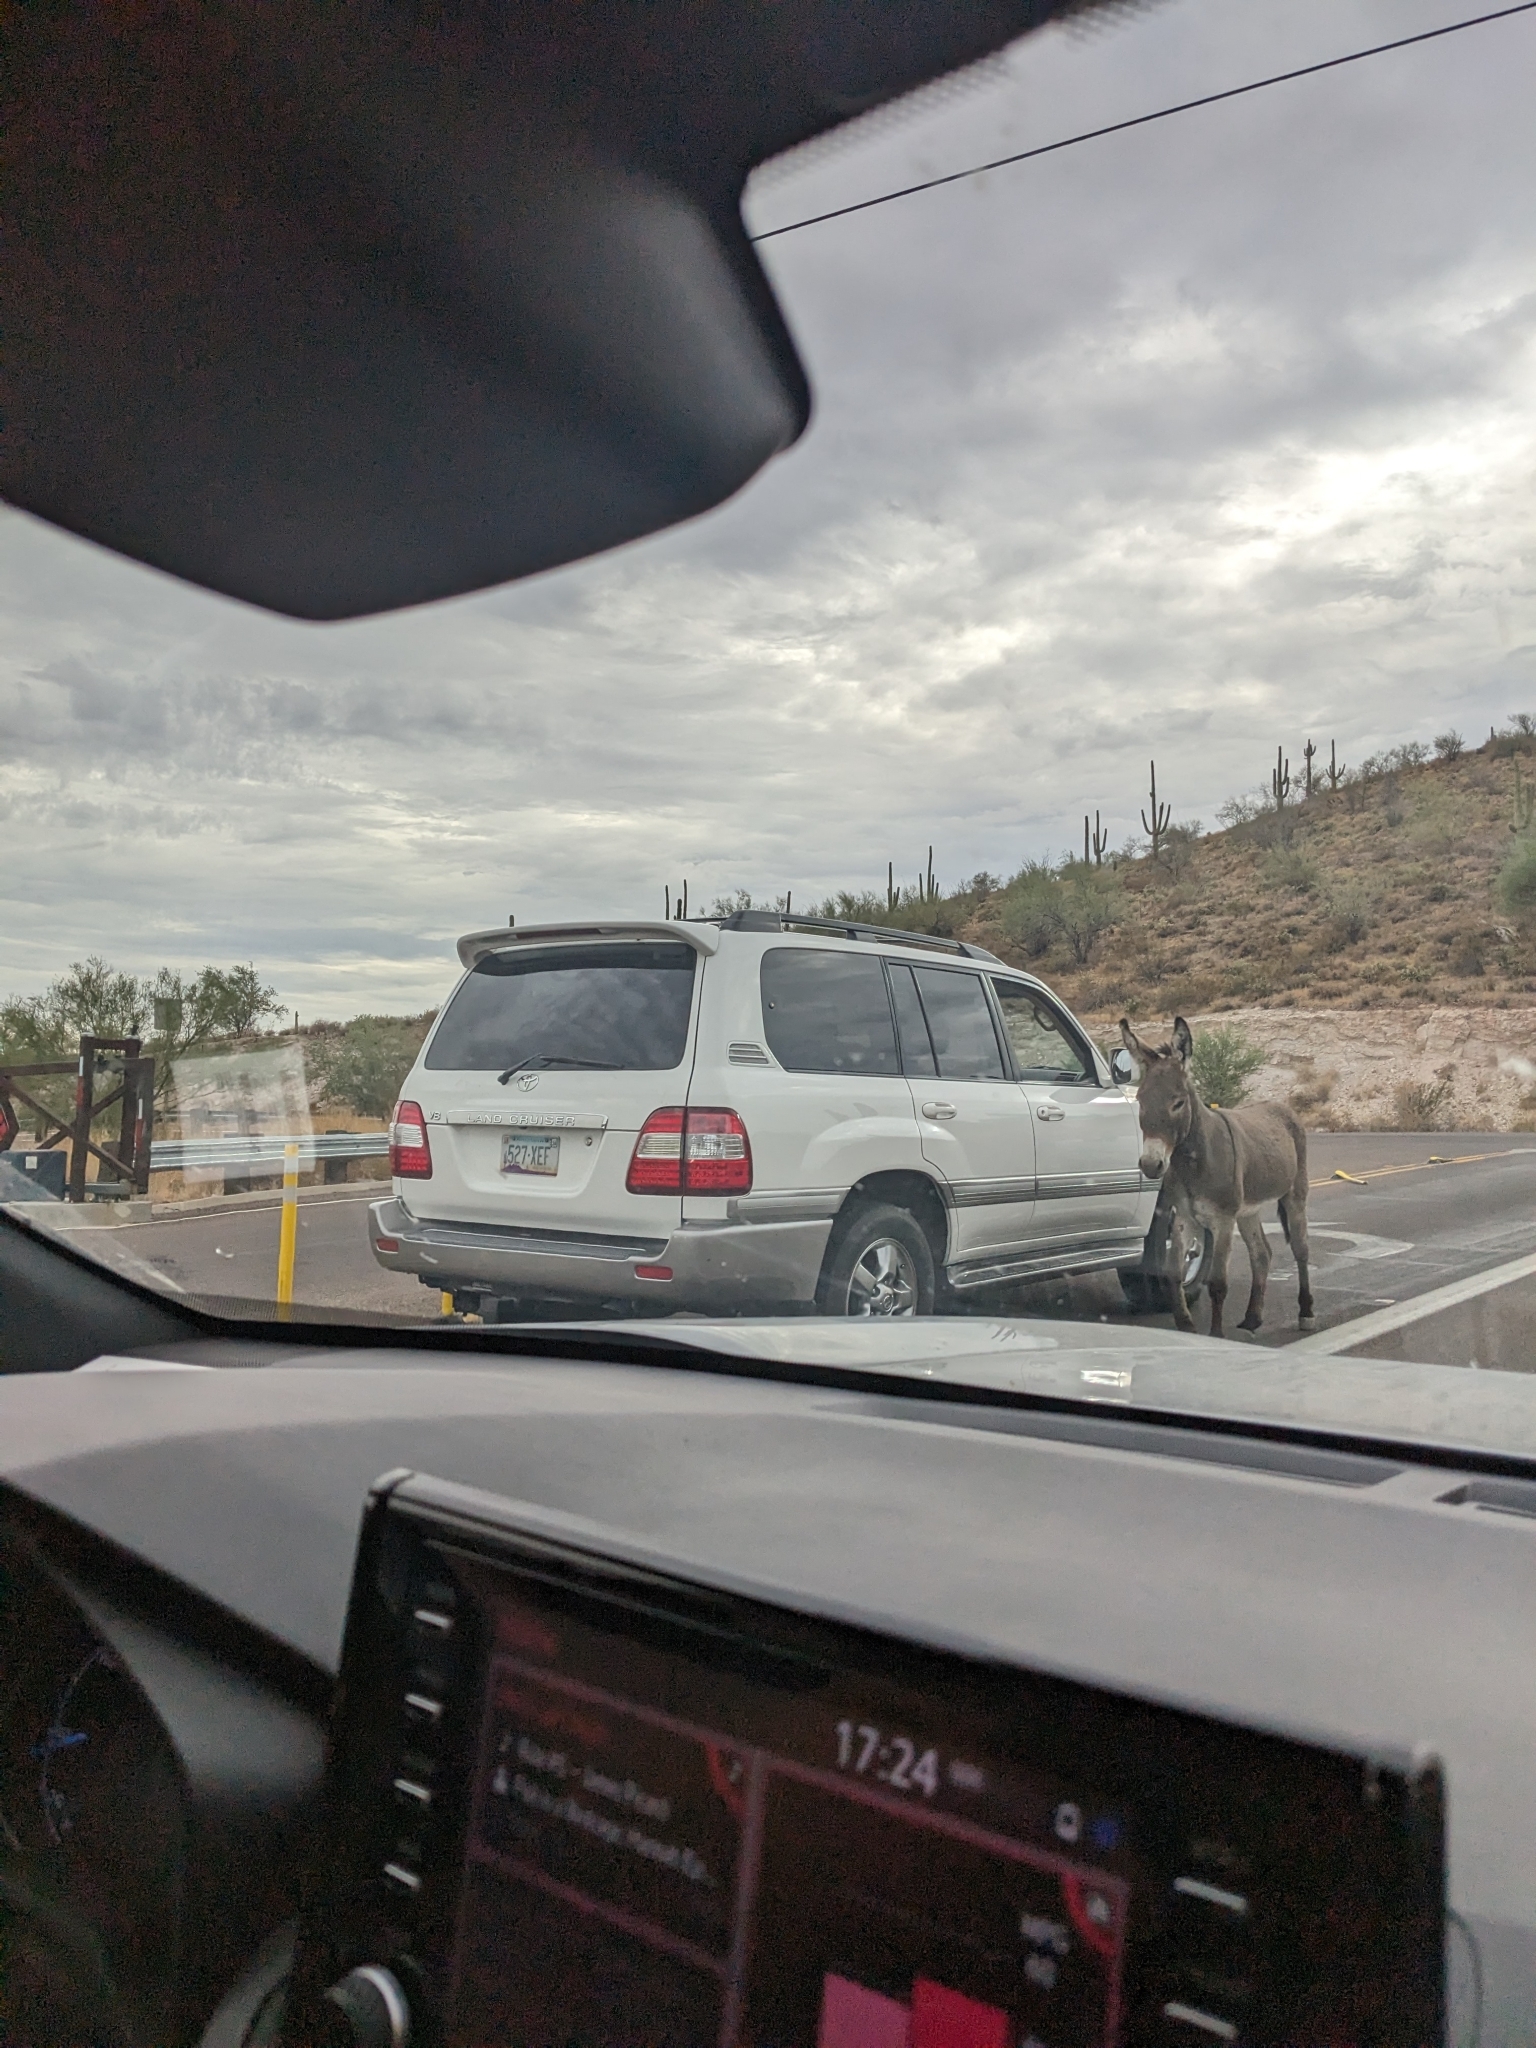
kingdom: Animalia
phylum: Chordata
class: Mammalia
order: Perissodactyla
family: Equidae
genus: Equus
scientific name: Equus asinus
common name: Ass
